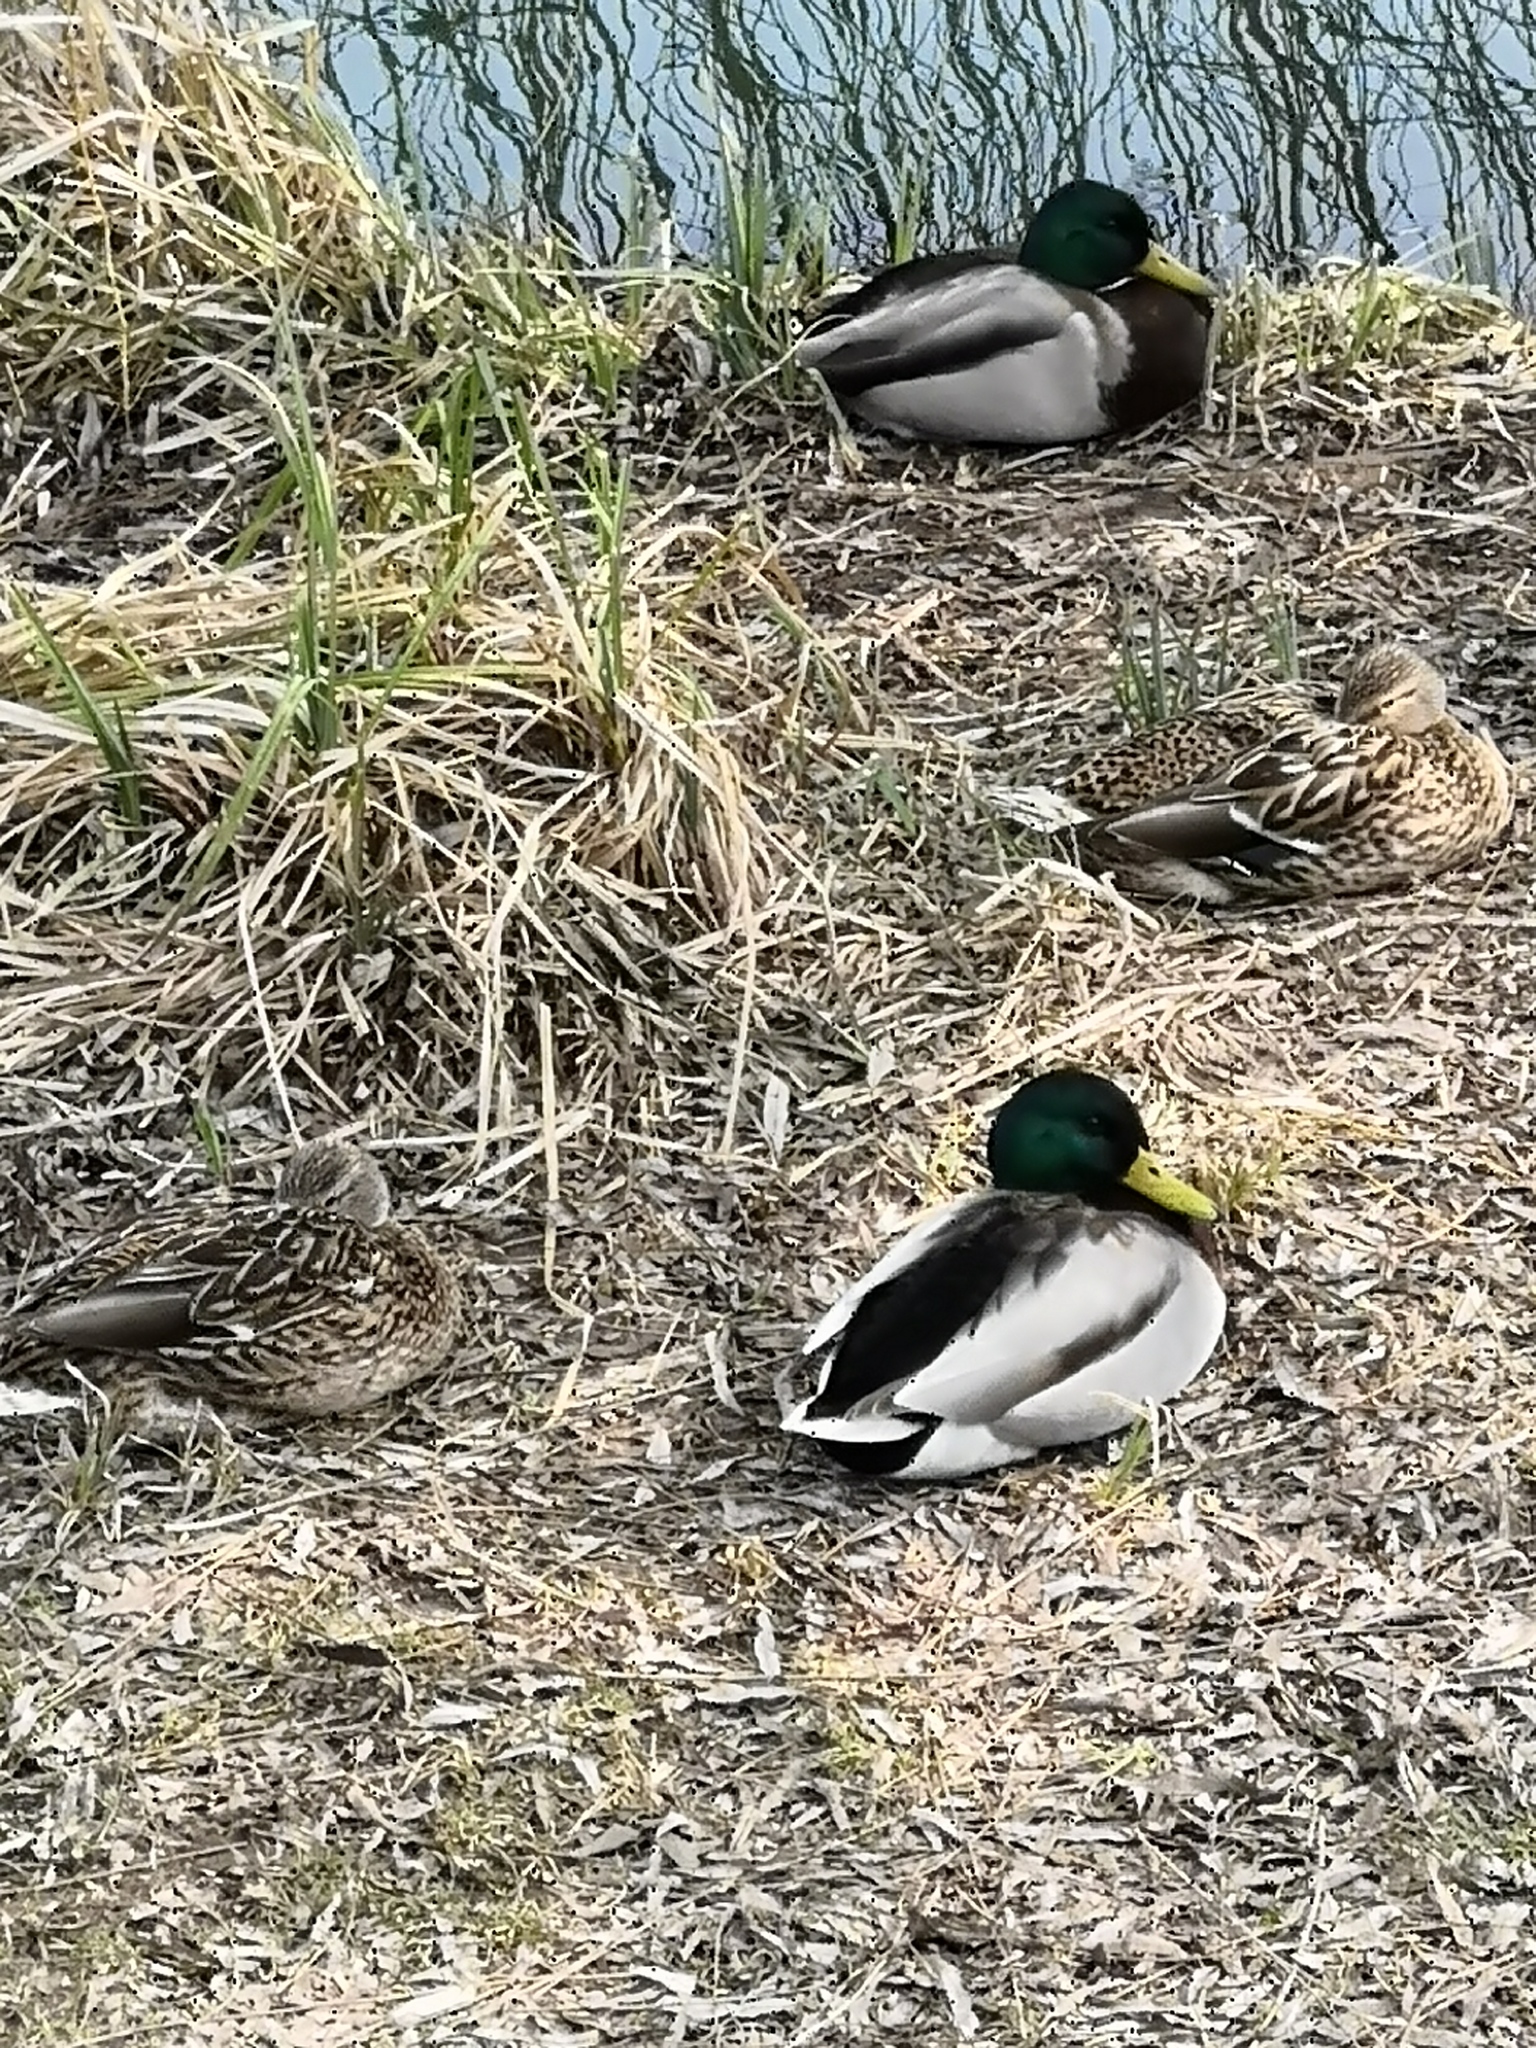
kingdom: Animalia
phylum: Chordata
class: Aves
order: Anseriformes
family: Anatidae
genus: Anas
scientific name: Anas platyrhynchos
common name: Mallard
